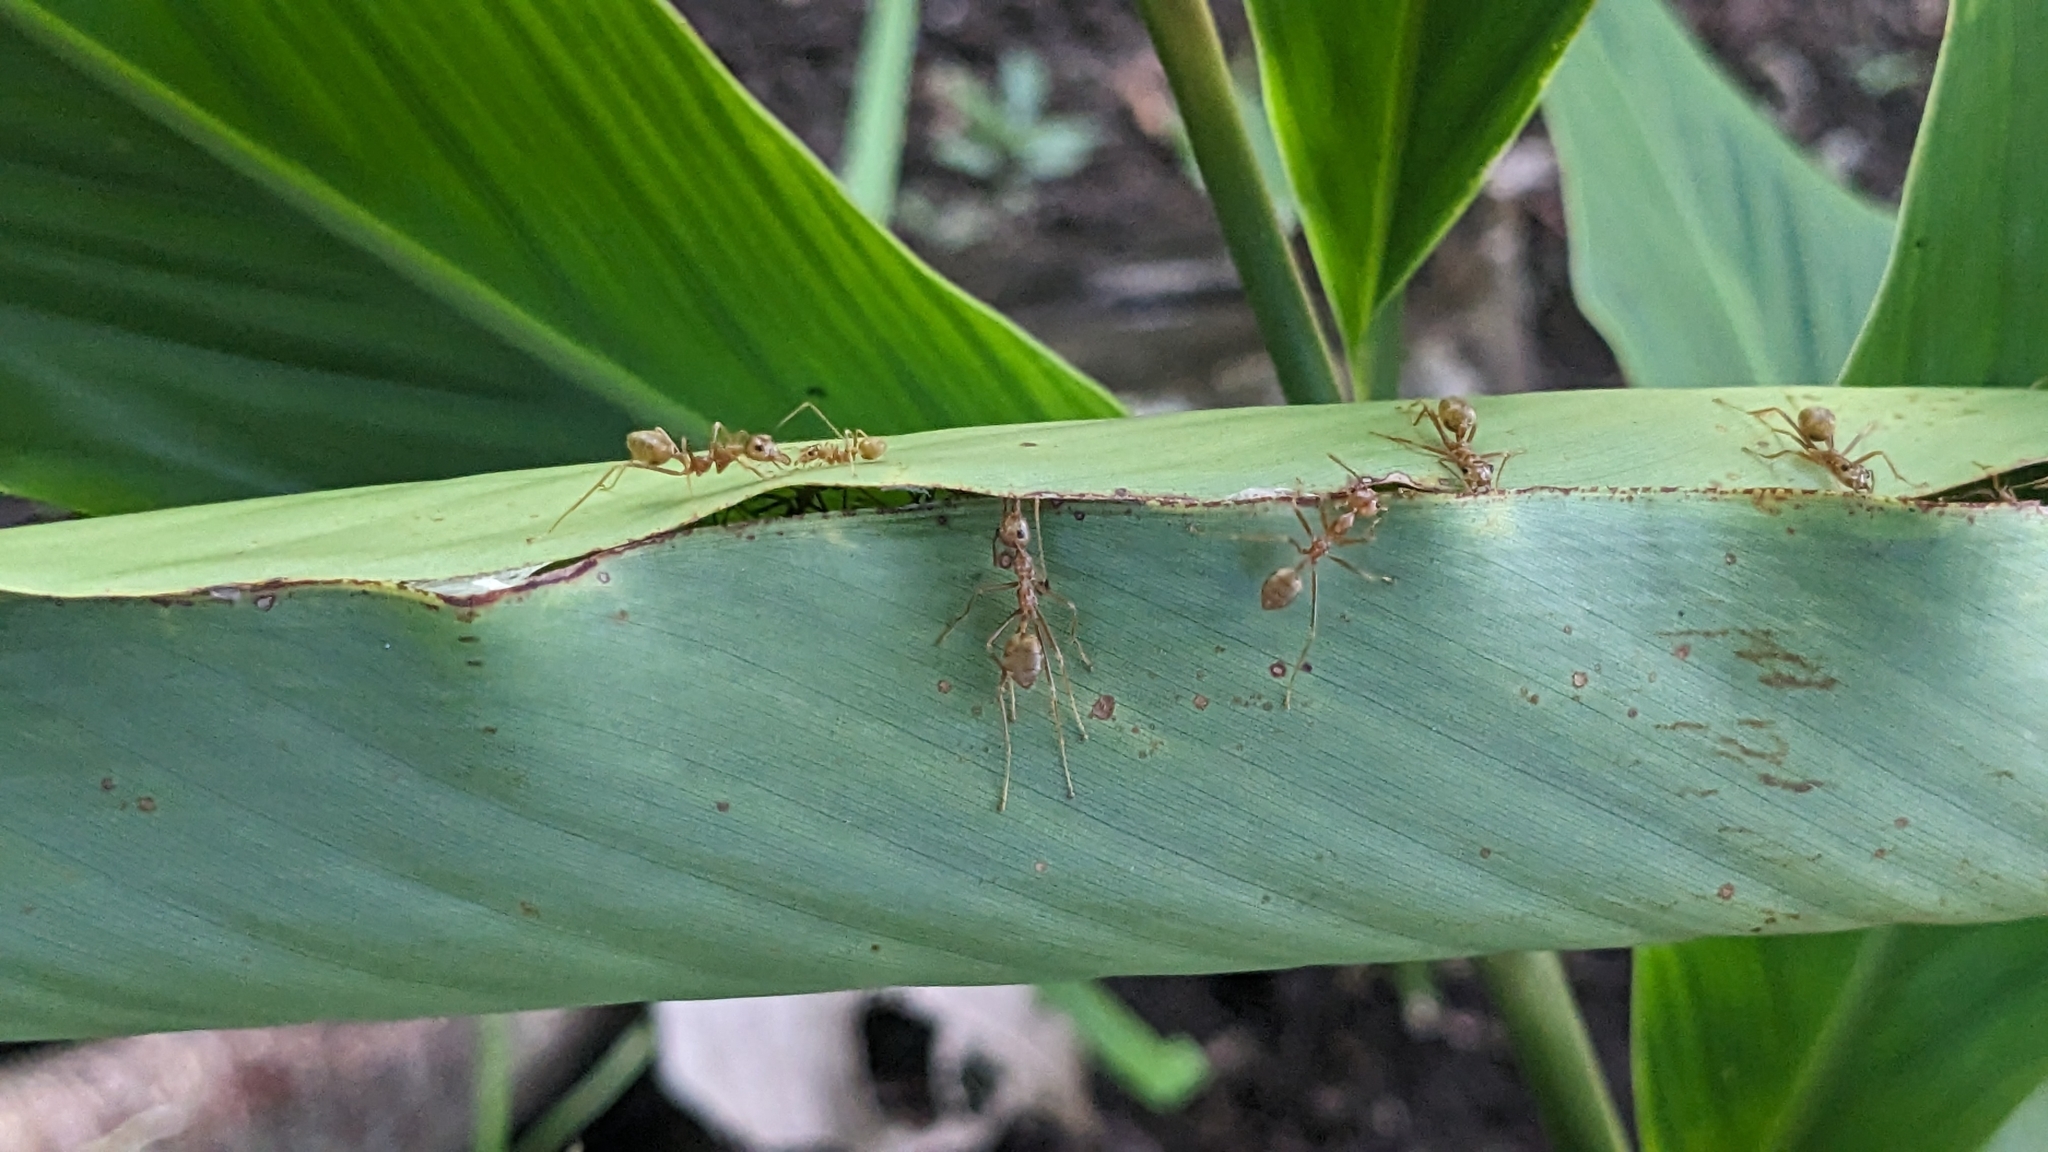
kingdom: Animalia
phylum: Arthropoda
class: Insecta
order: Hymenoptera
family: Formicidae
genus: Oecophylla
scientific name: Oecophylla smaragdina
